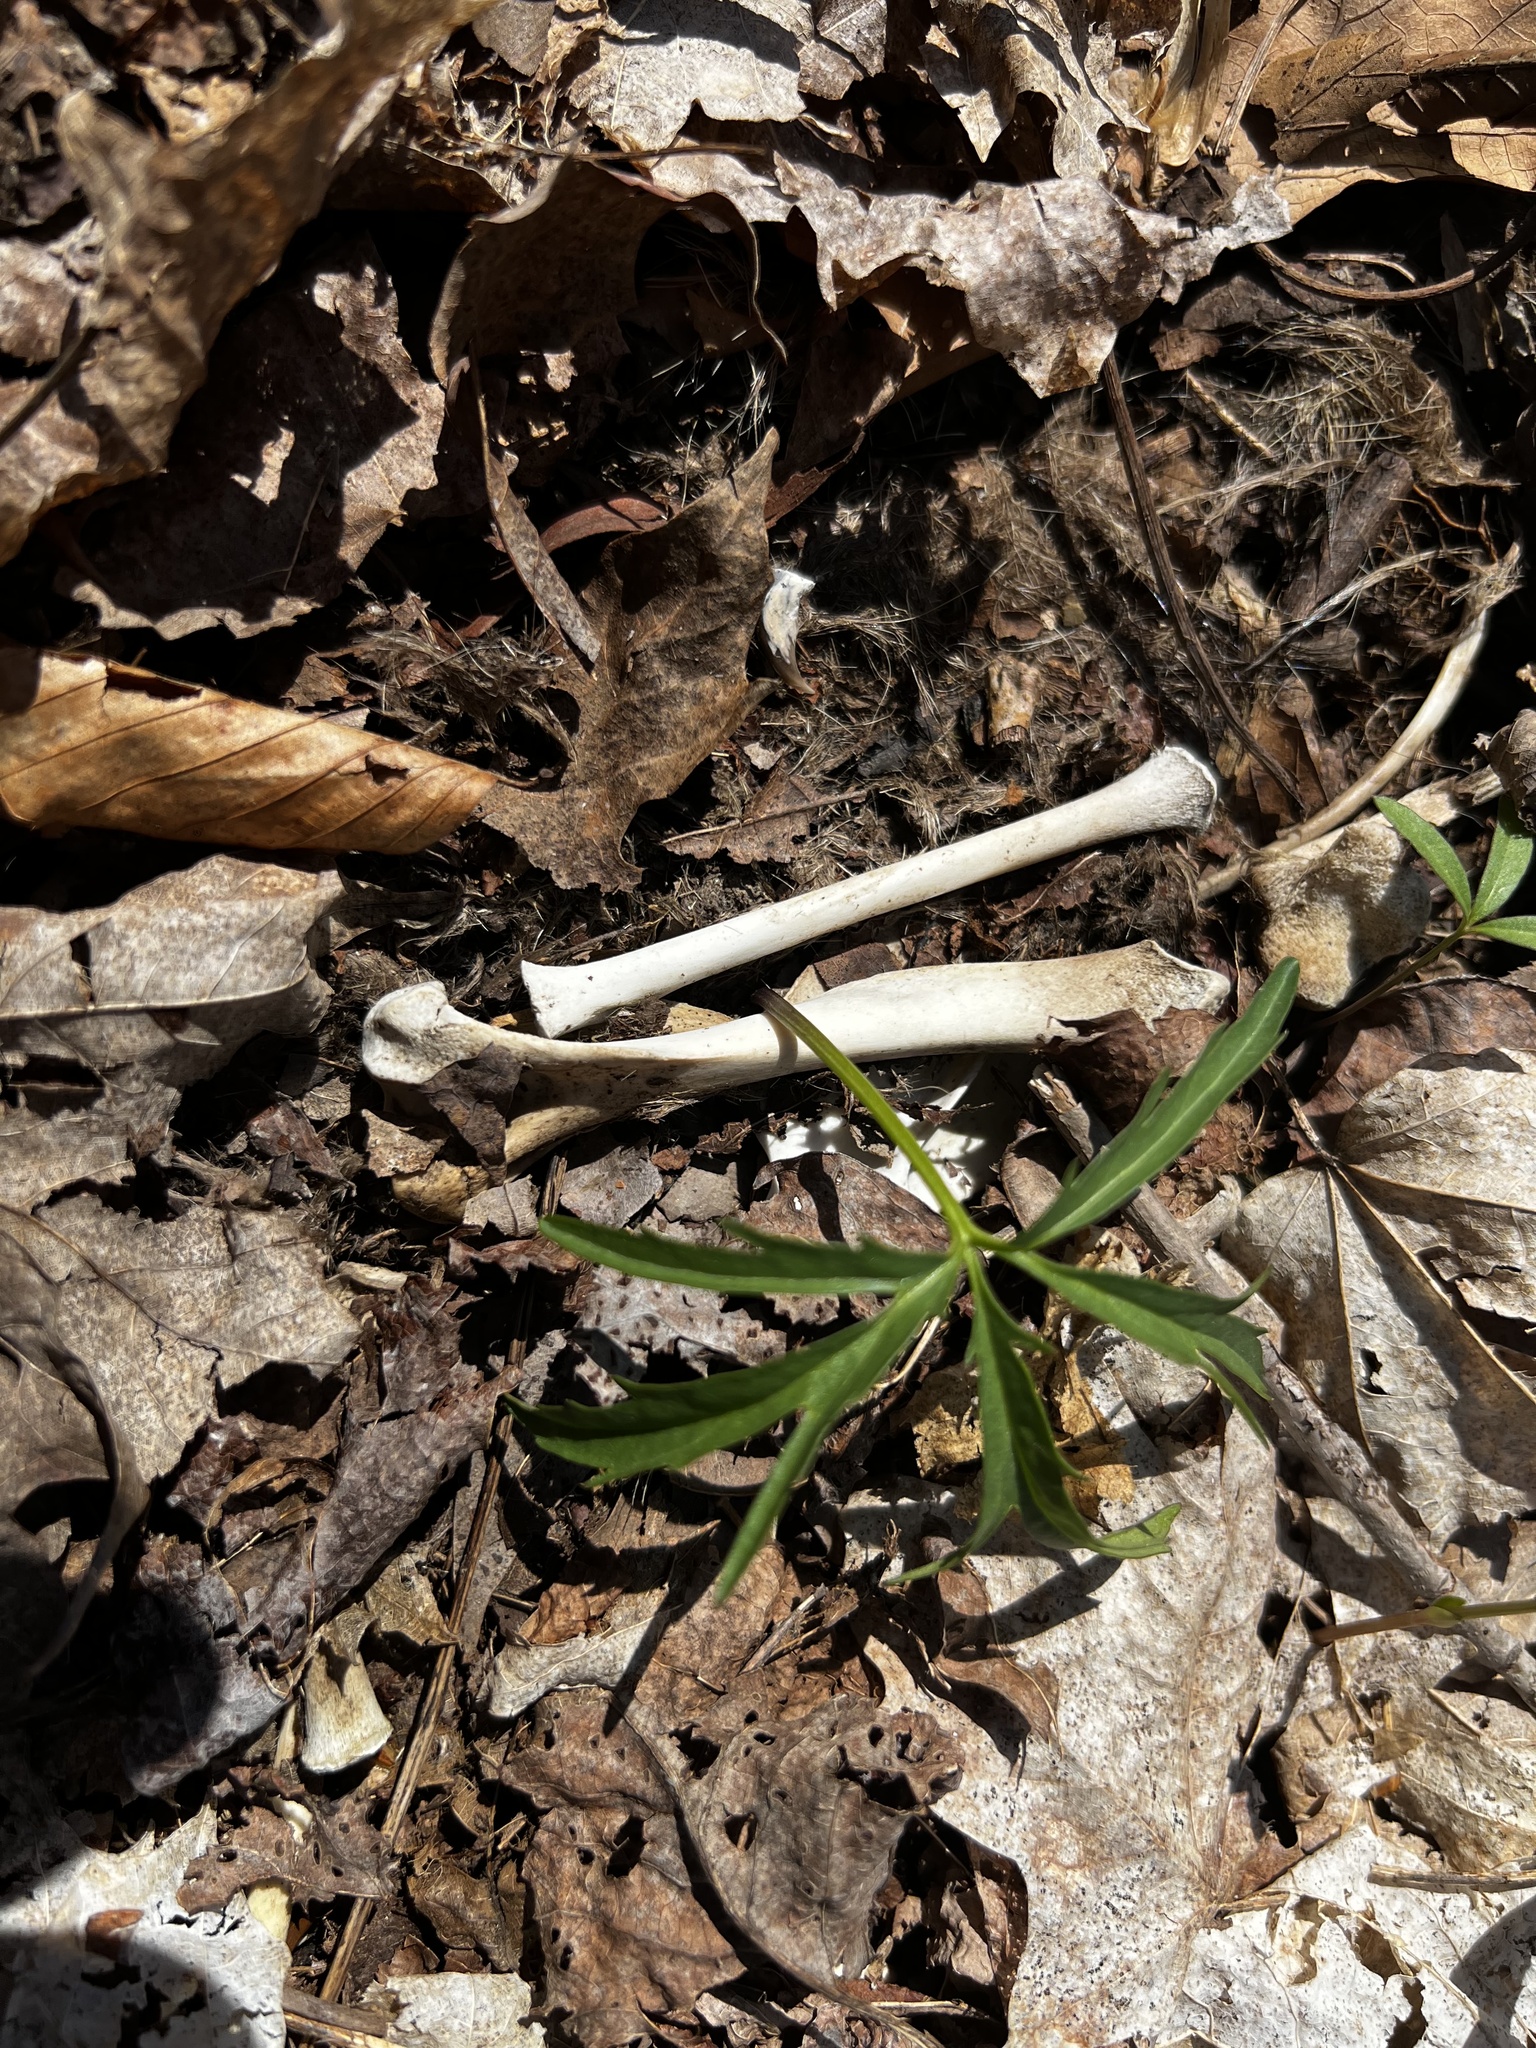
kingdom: Animalia
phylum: Chordata
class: Mammalia
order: Carnivora
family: Procyonidae
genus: Procyon
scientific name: Procyon lotor
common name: Raccoon
